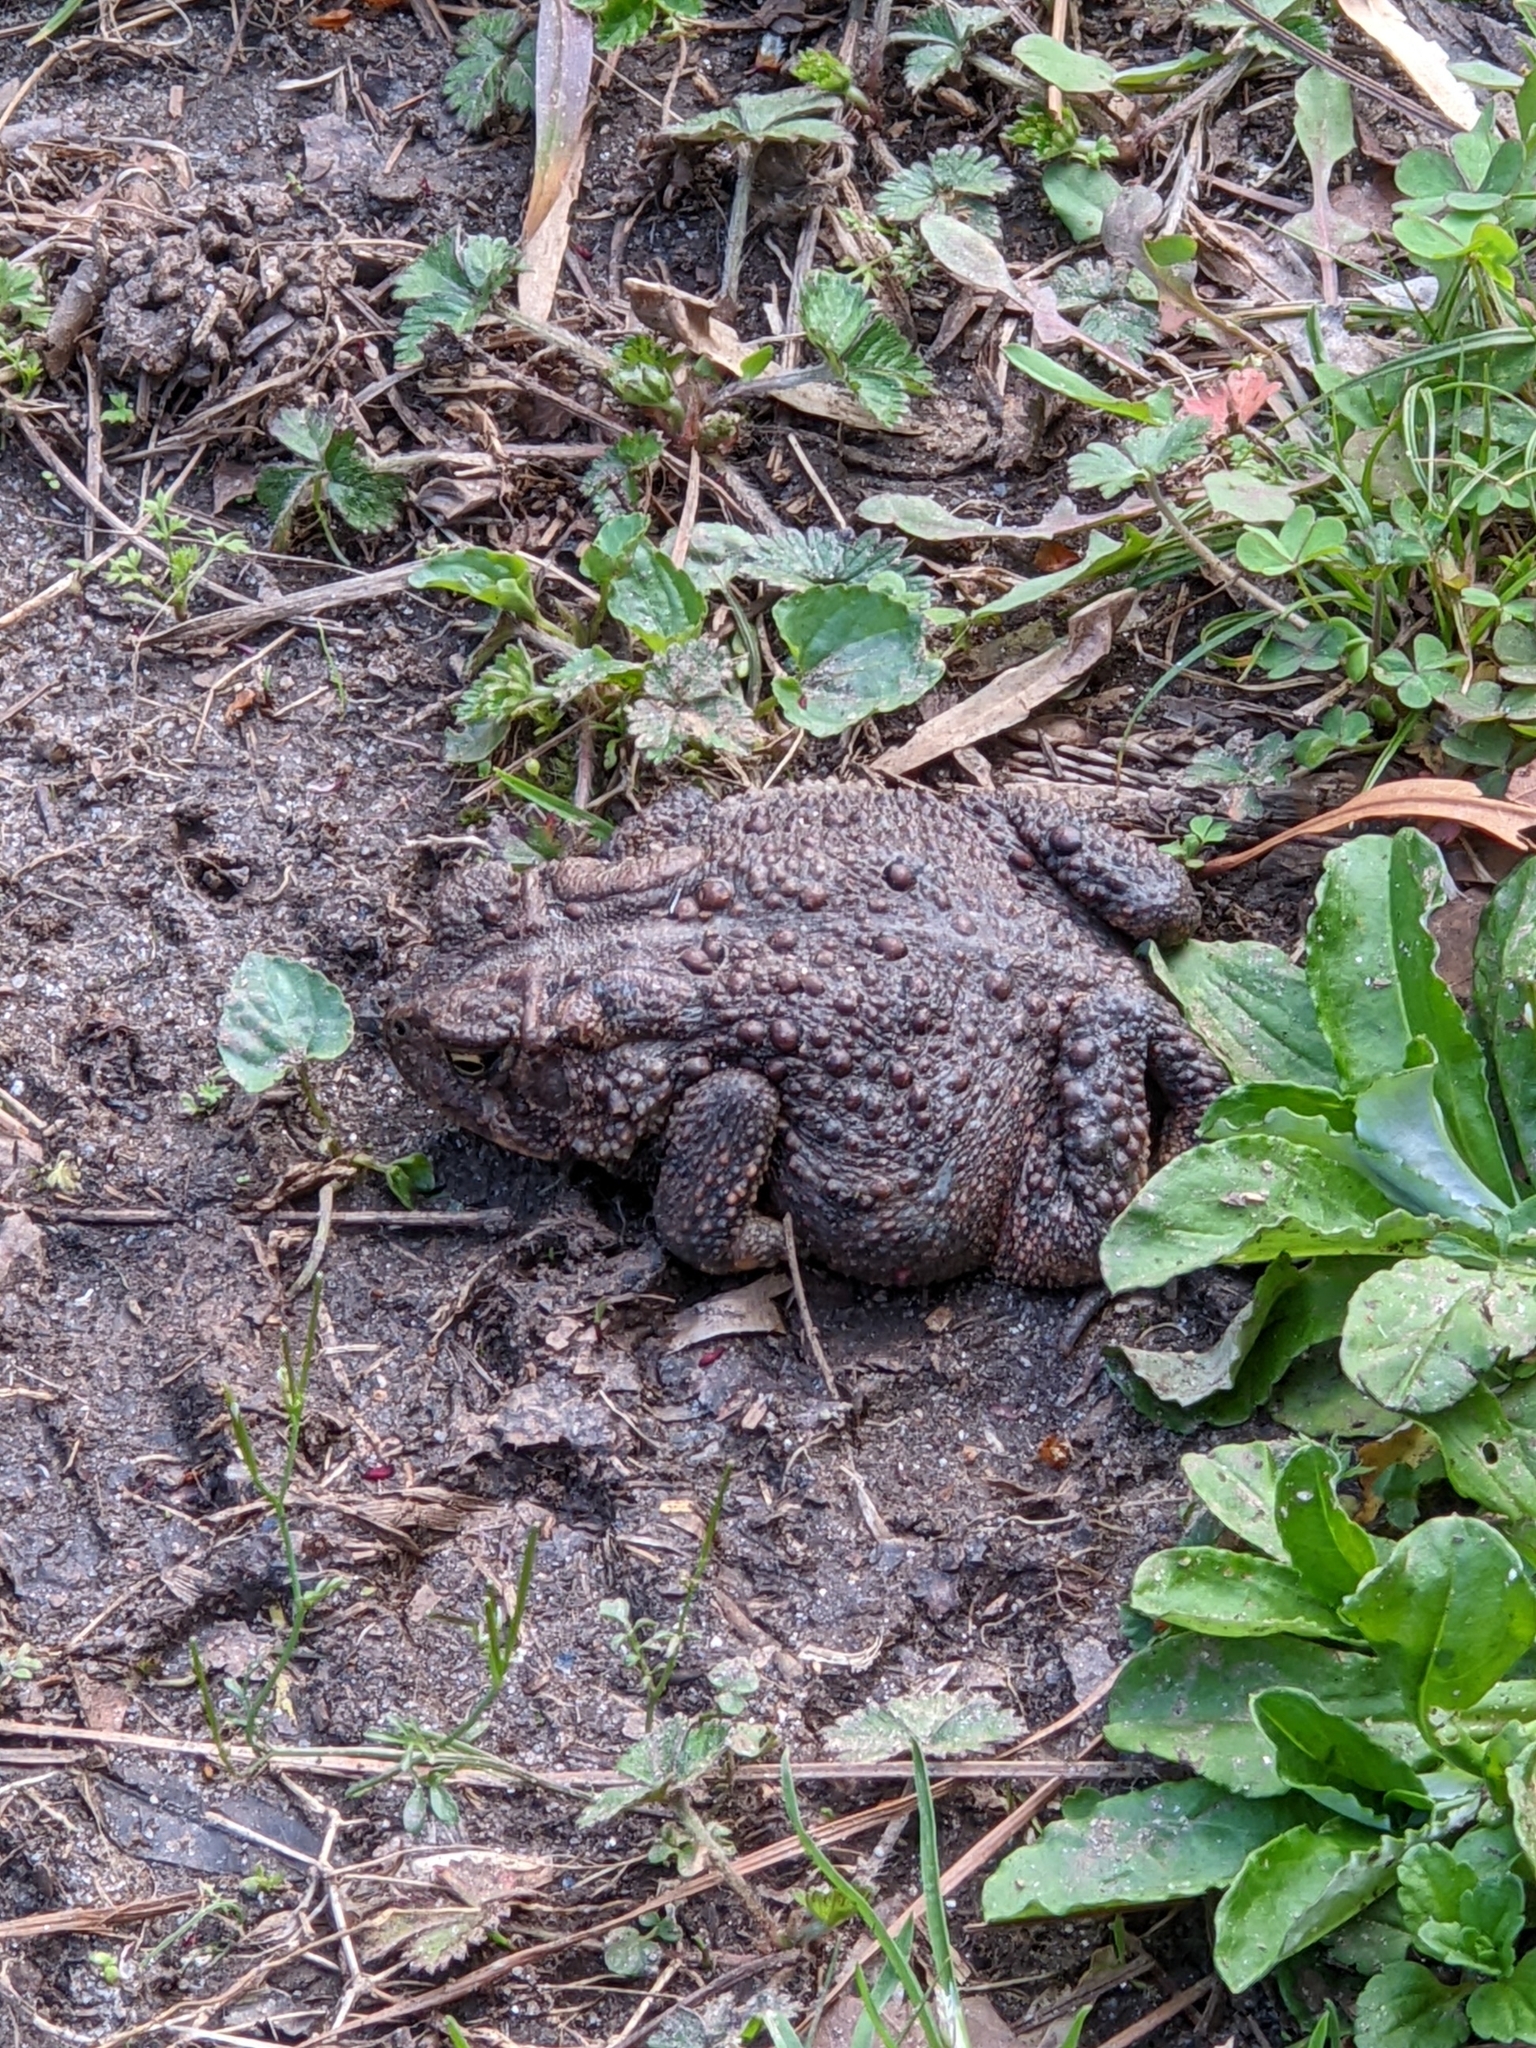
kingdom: Animalia
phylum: Chordata
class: Amphibia
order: Anura
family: Bufonidae
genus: Anaxyrus
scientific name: Anaxyrus americanus
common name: American toad
